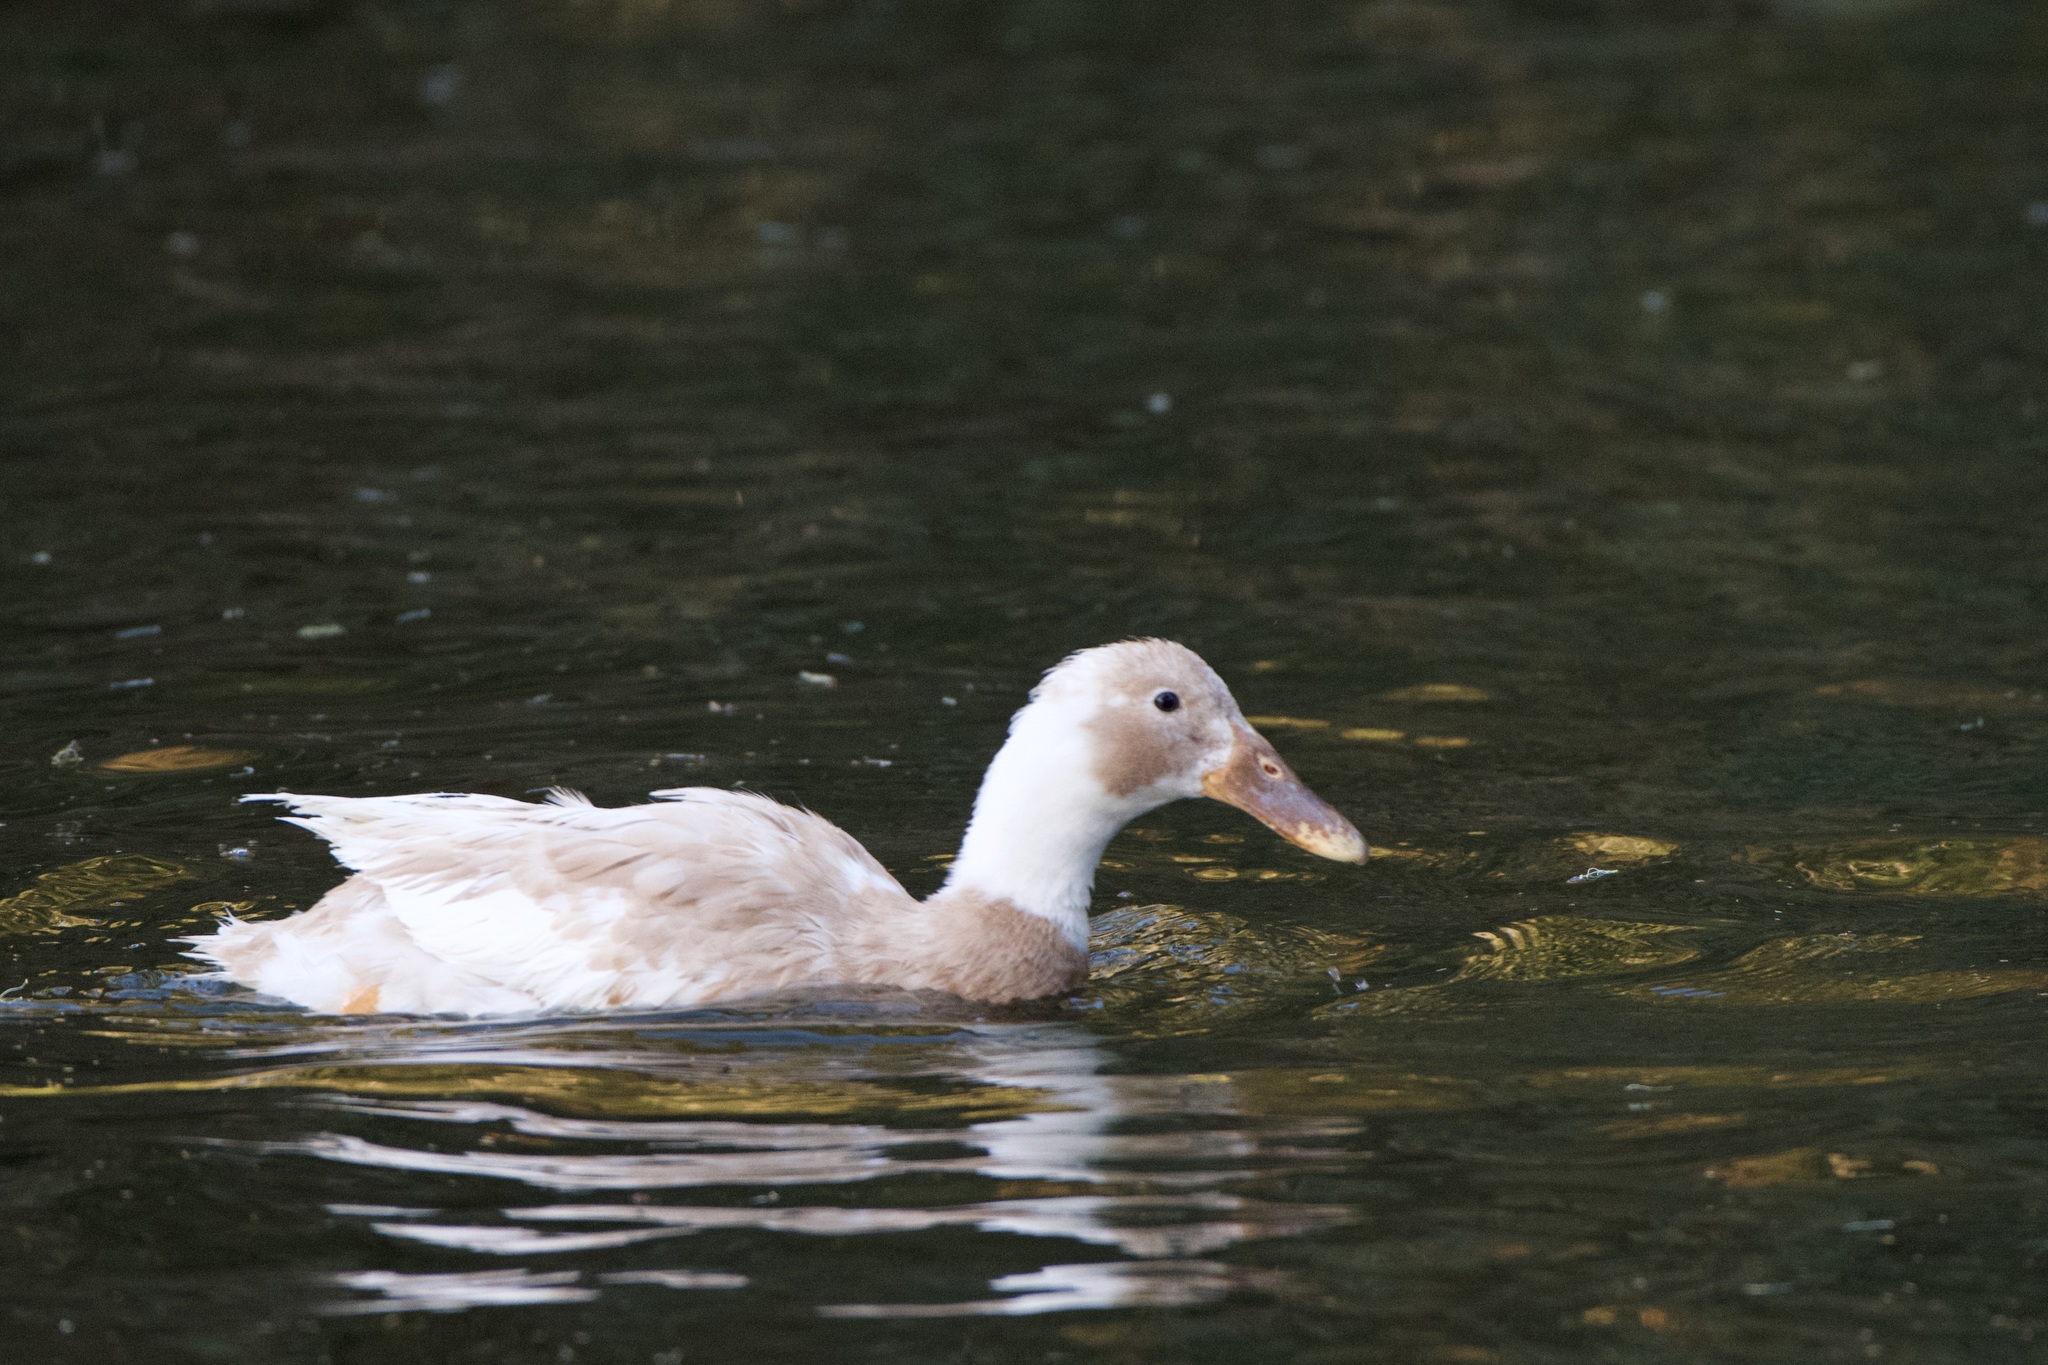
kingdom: Animalia
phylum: Chordata
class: Aves
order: Anseriformes
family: Anatidae
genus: Anas
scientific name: Anas platyrhynchos
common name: Mallard
